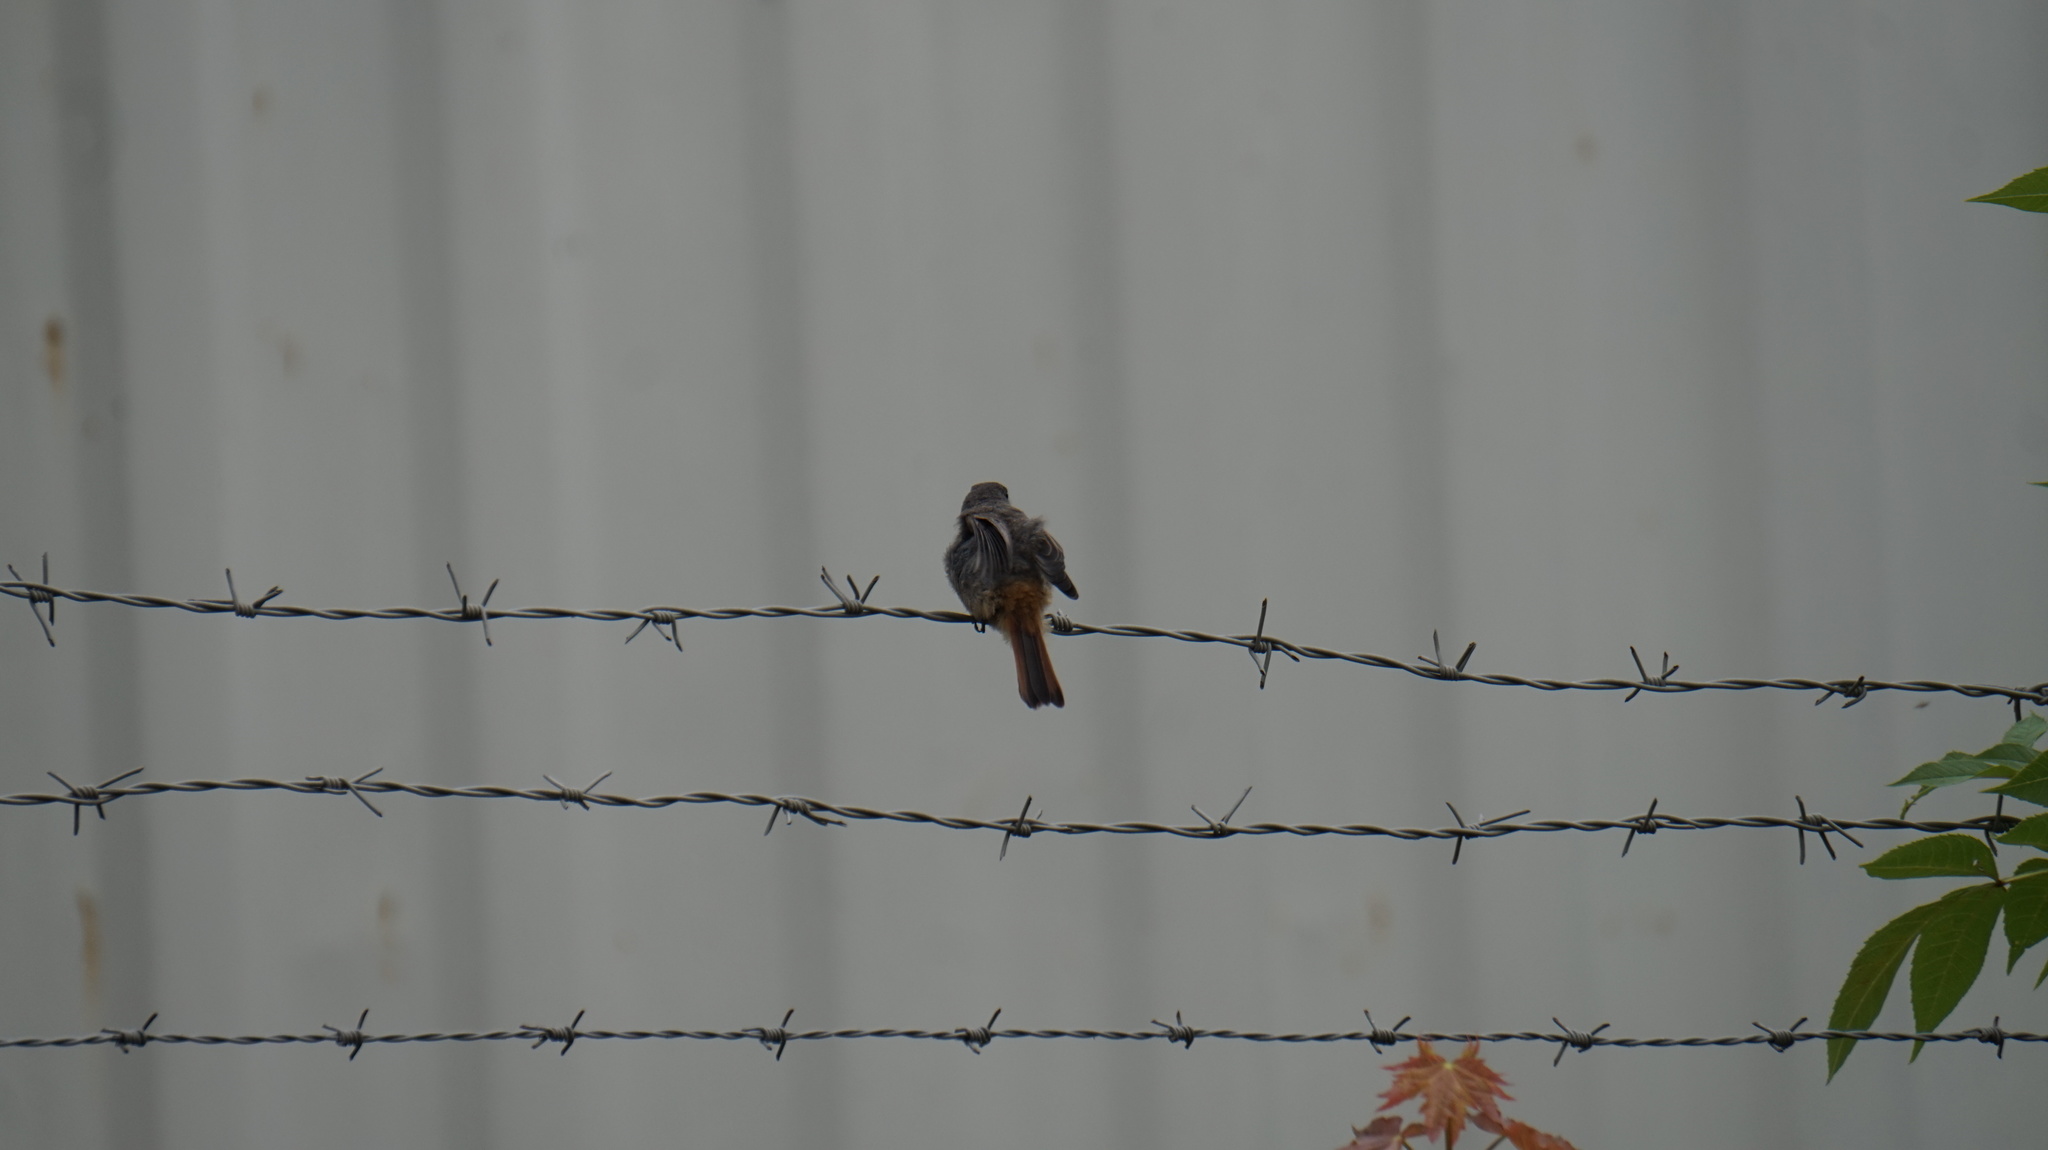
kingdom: Animalia
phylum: Chordata
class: Aves
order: Passeriformes
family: Muscicapidae
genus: Phoenicurus
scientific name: Phoenicurus ochruros
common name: Black redstart
